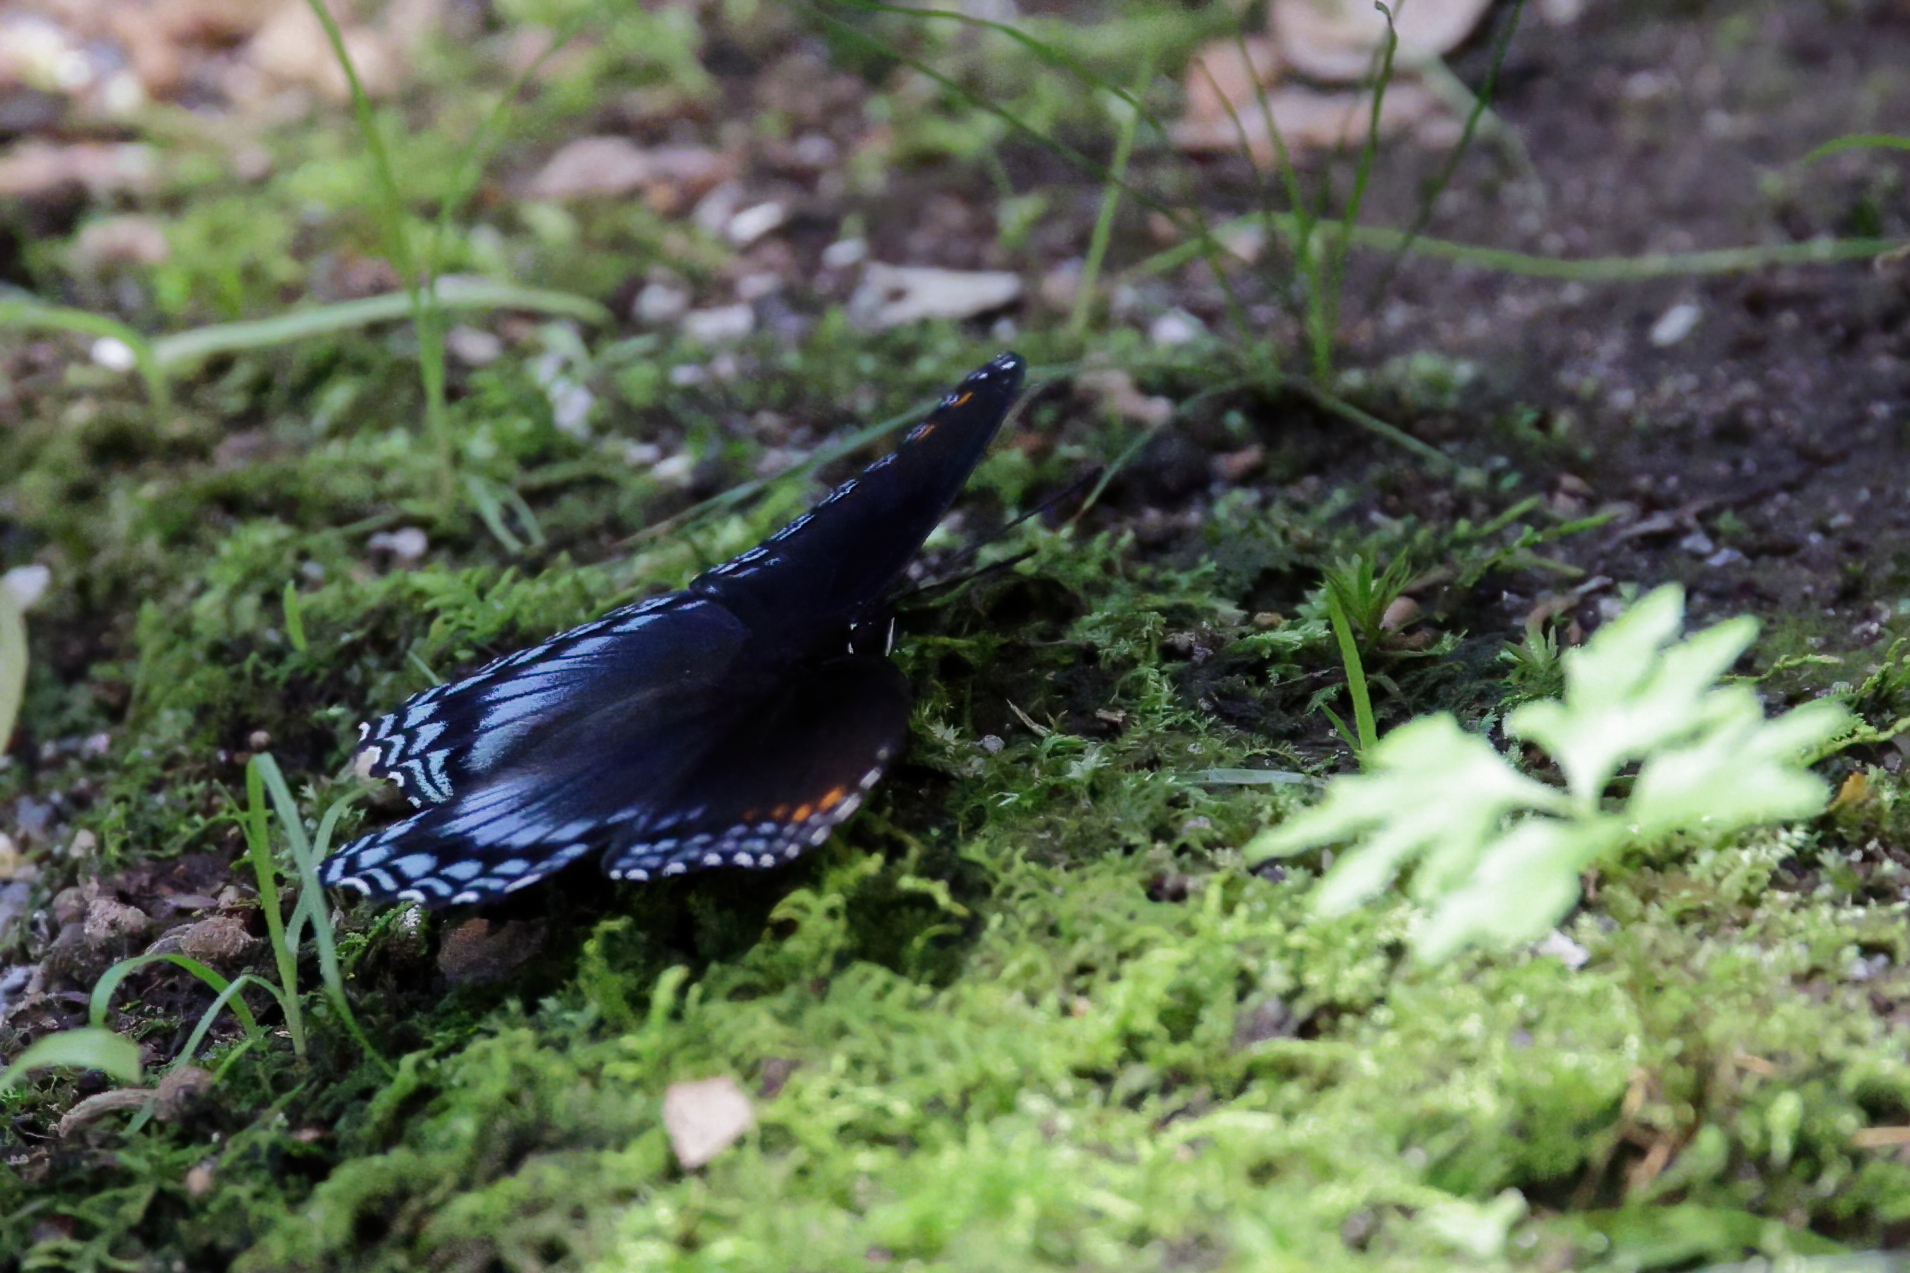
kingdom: Animalia
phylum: Arthropoda
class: Insecta
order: Lepidoptera
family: Nymphalidae
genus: Limenitis
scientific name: Limenitis astyanax
